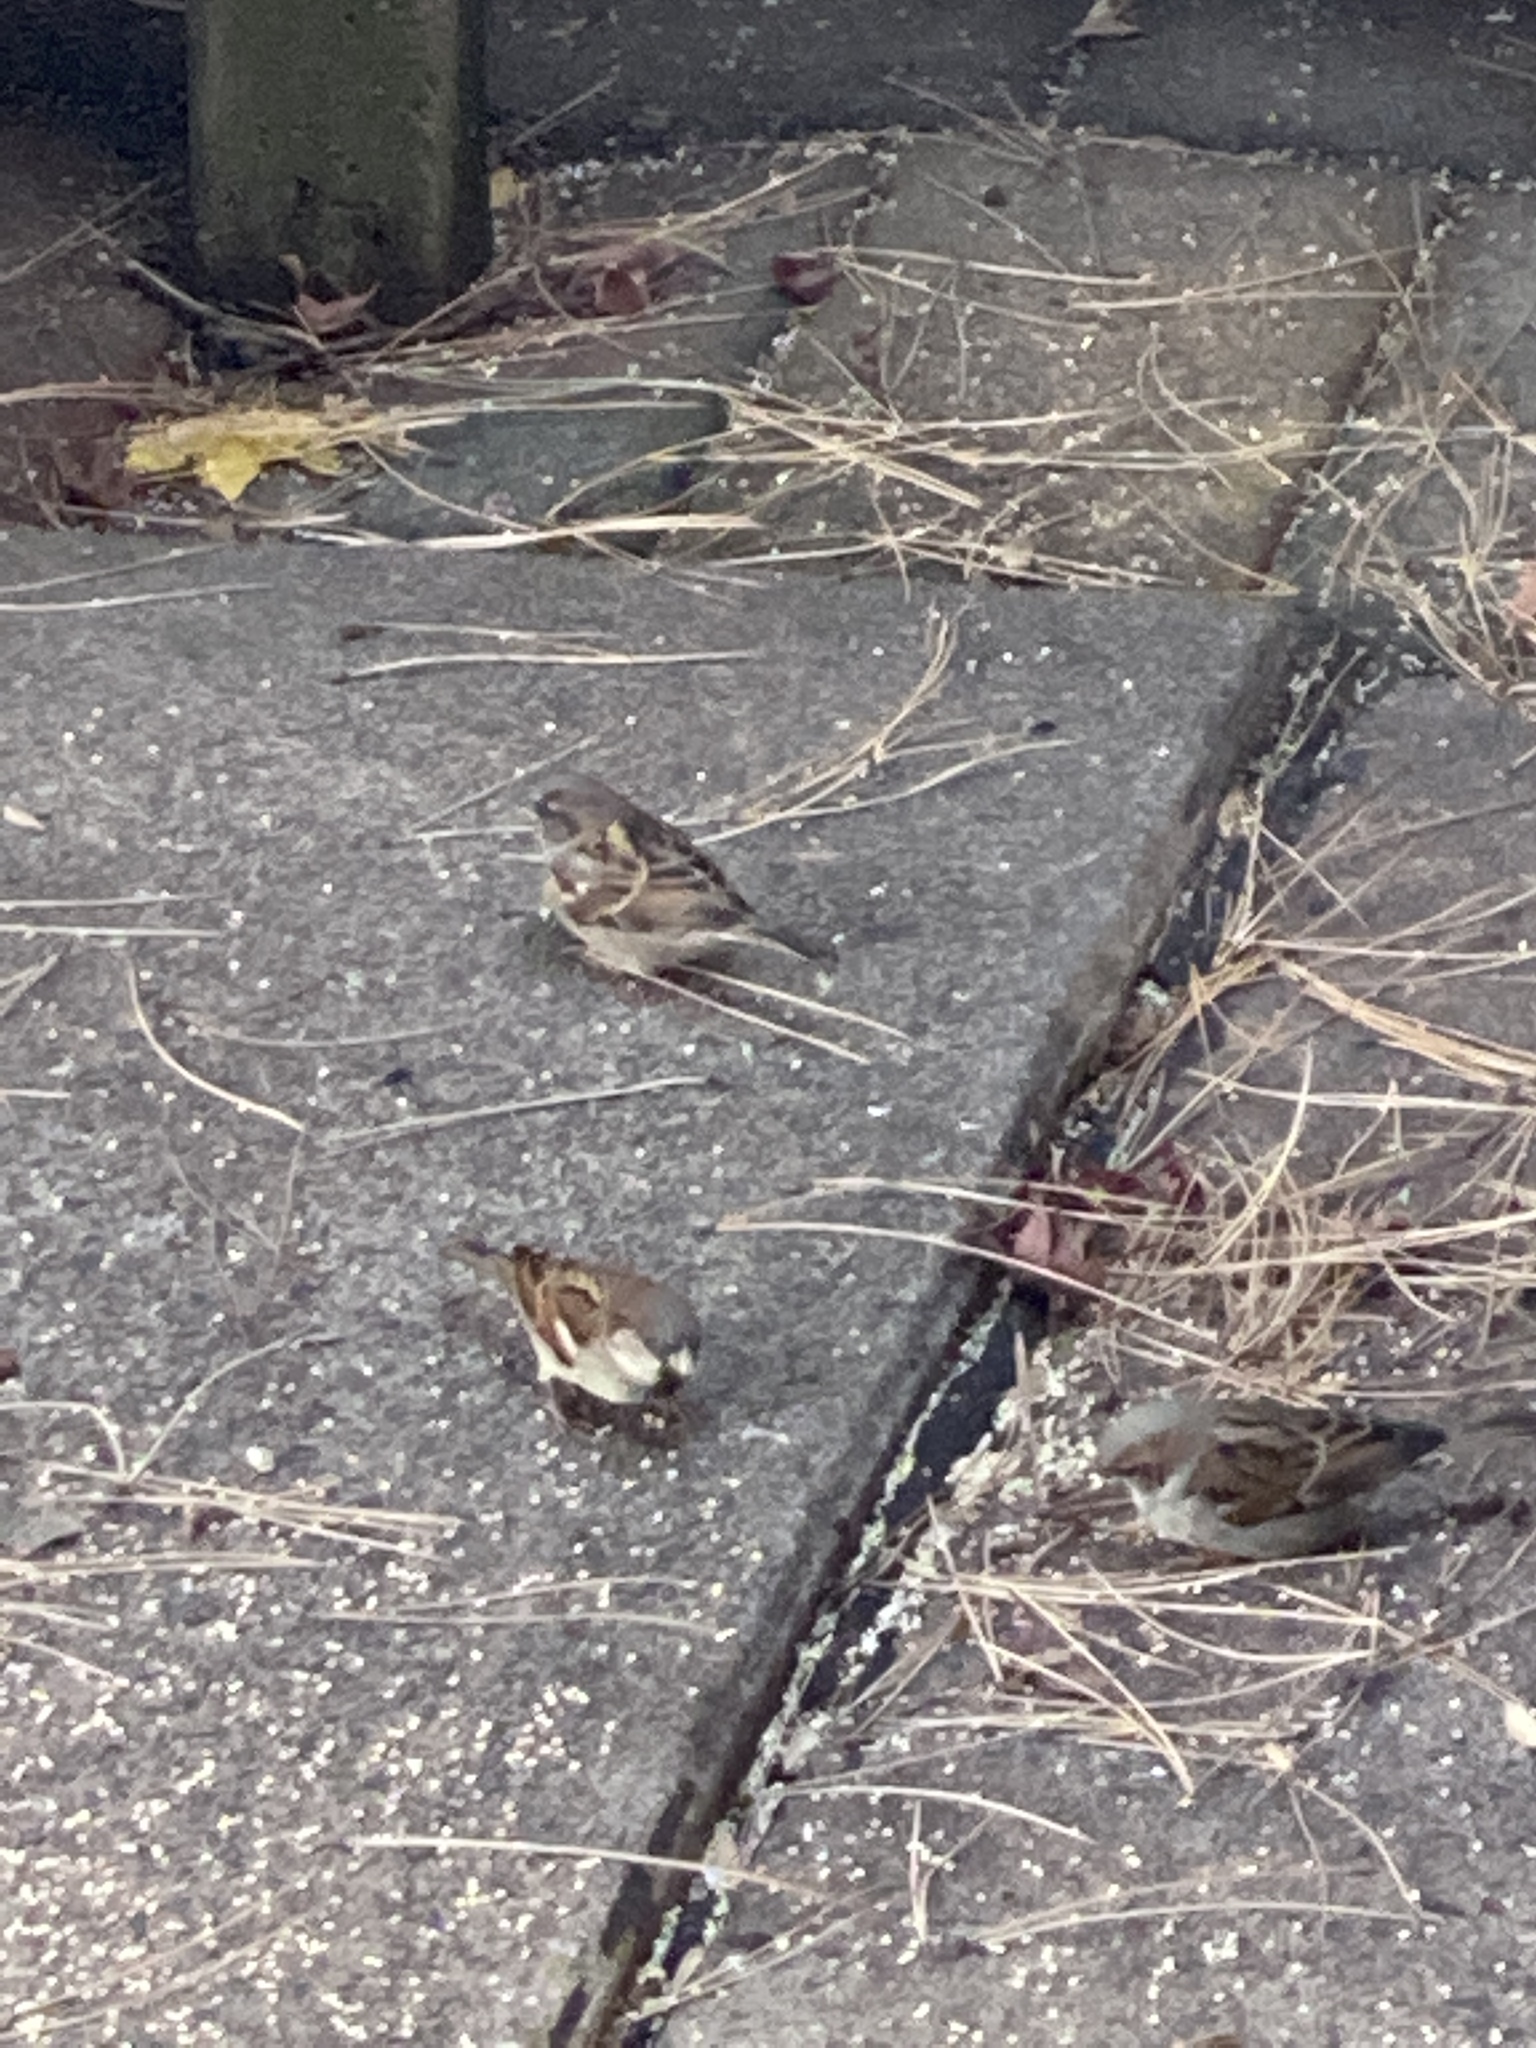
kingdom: Animalia
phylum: Chordata
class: Aves
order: Passeriformes
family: Passeridae
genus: Passer
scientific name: Passer domesticus
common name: House sparrow
